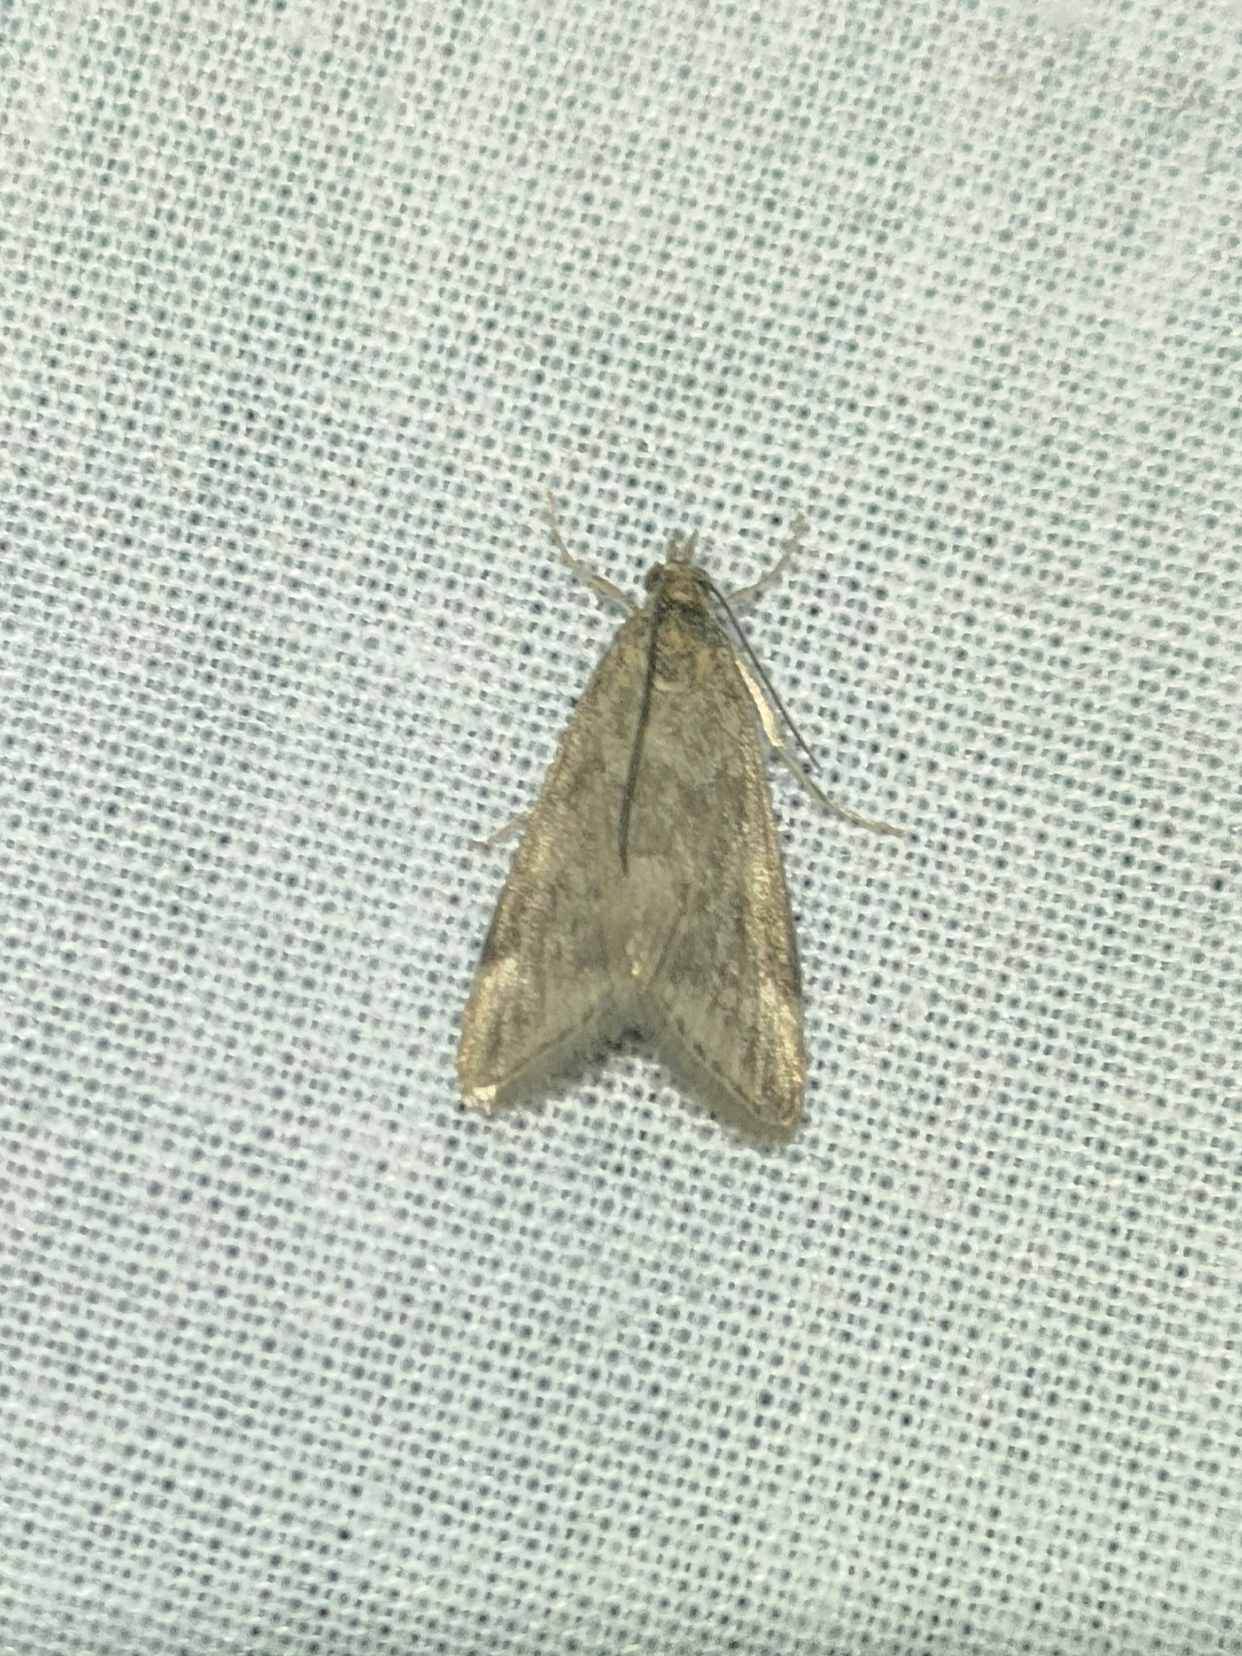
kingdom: Animalia
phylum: Arthropoda
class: Insecta
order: Lepidoptera
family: Crambidae
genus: Pyrausta
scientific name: Pyrausta despicata
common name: Straw-barred pearl
